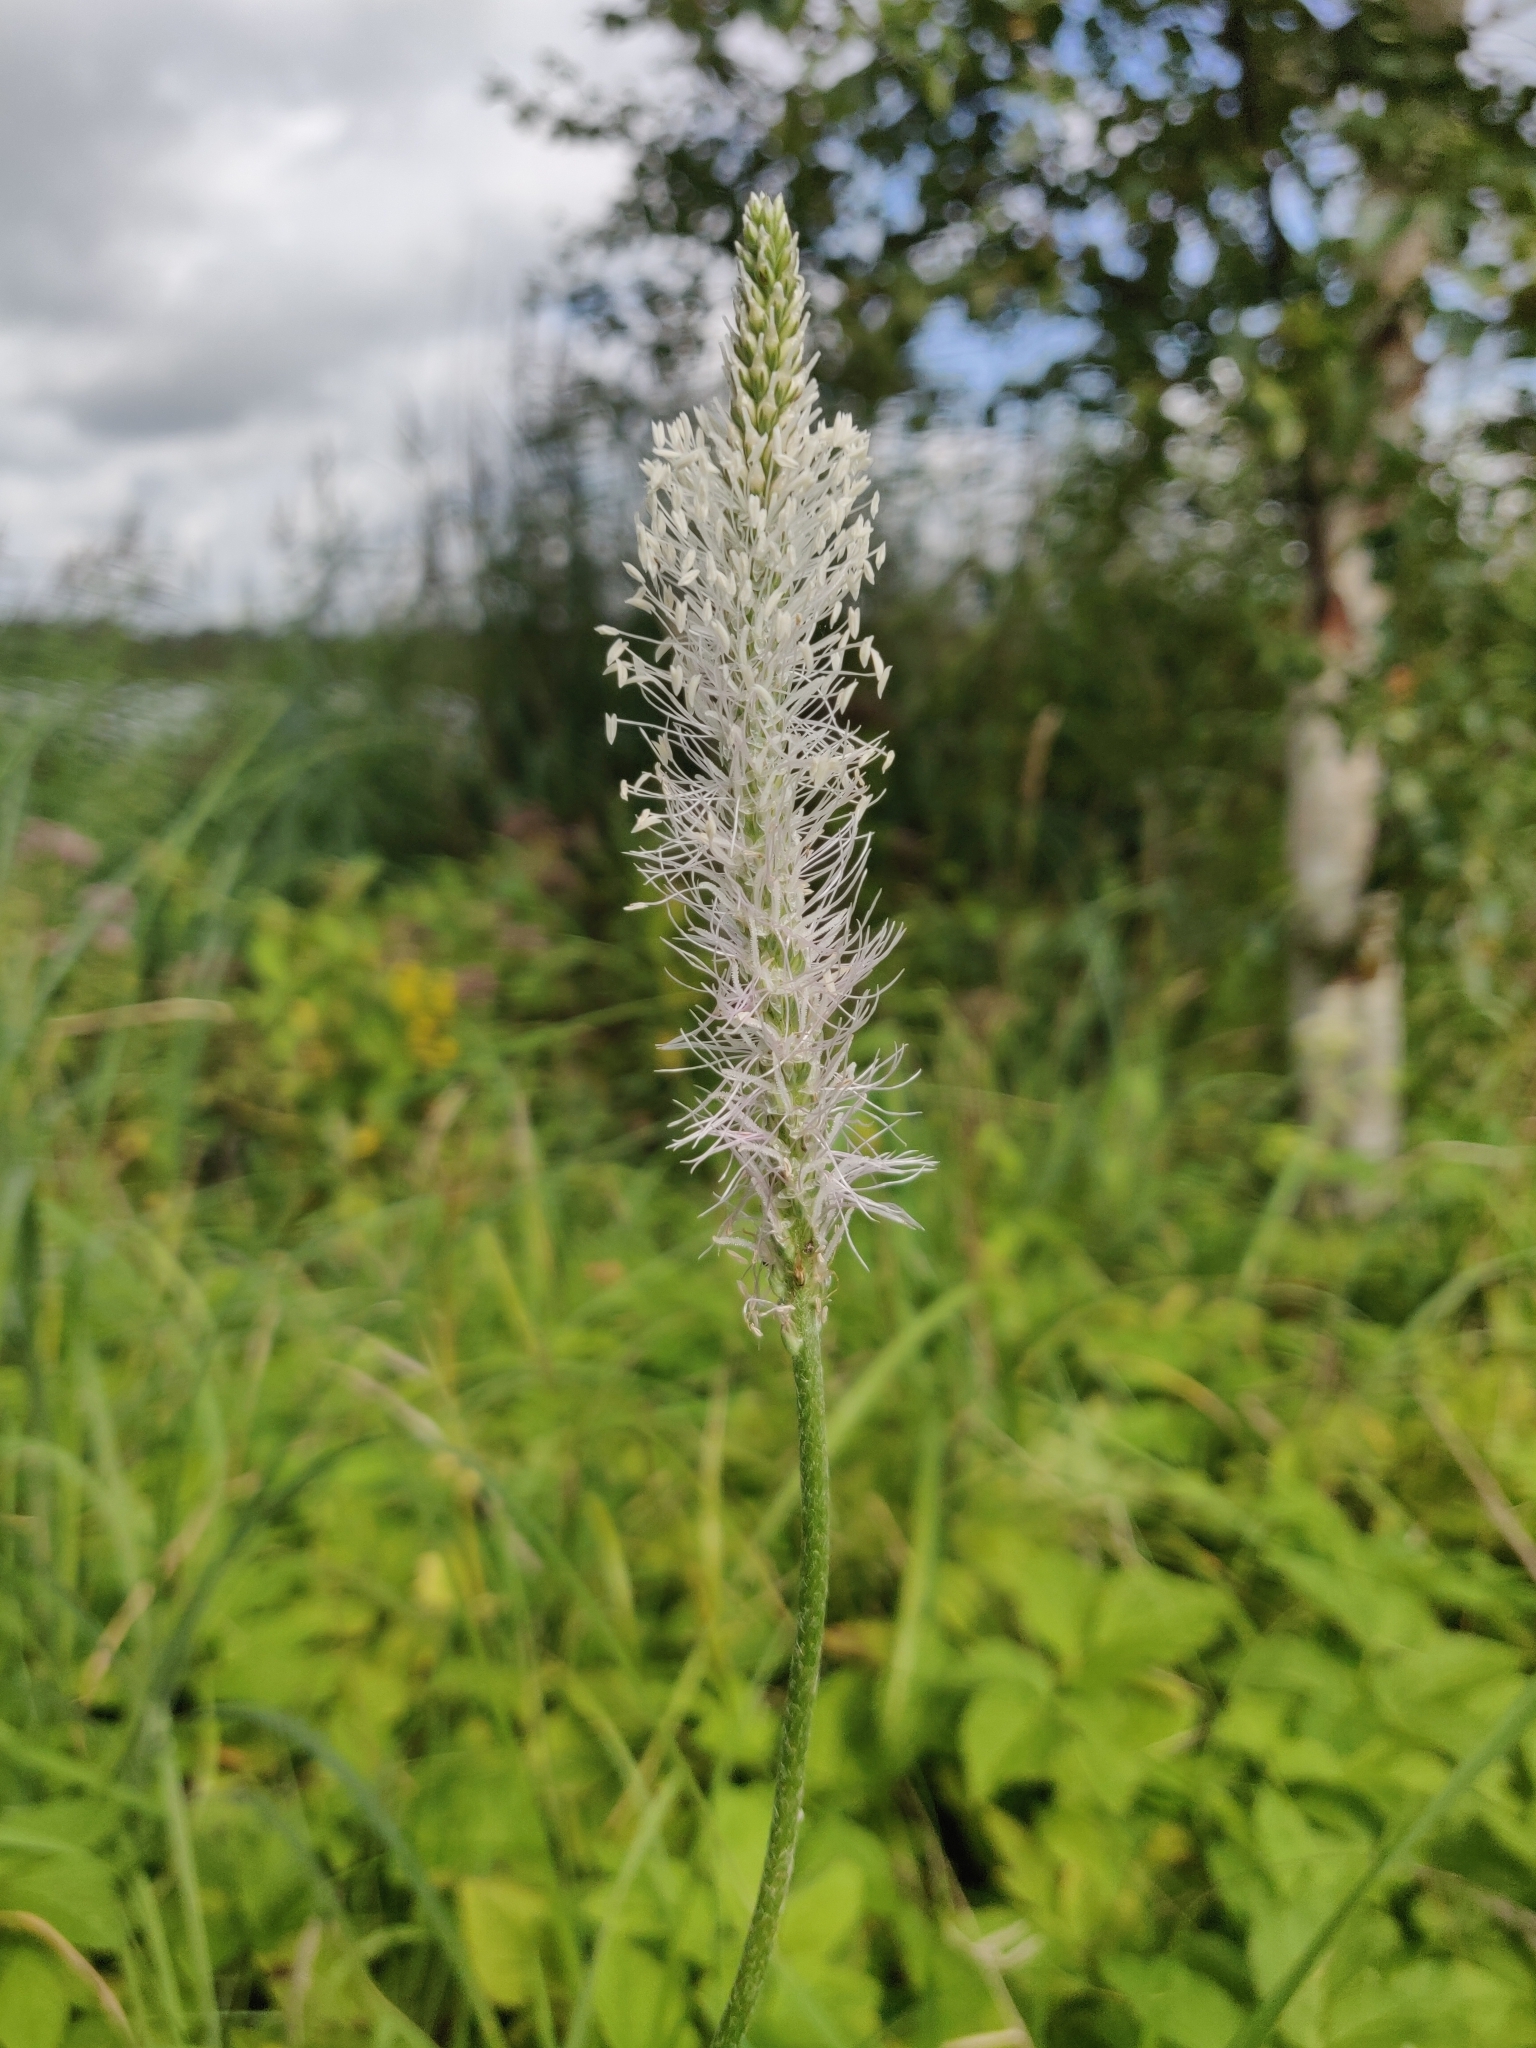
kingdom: Plantae
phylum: Tracheophyta
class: Magnoliopsida
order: Lamiales
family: Plantaginaceae
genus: Plantago
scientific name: Plantago media
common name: Hoary plantain
